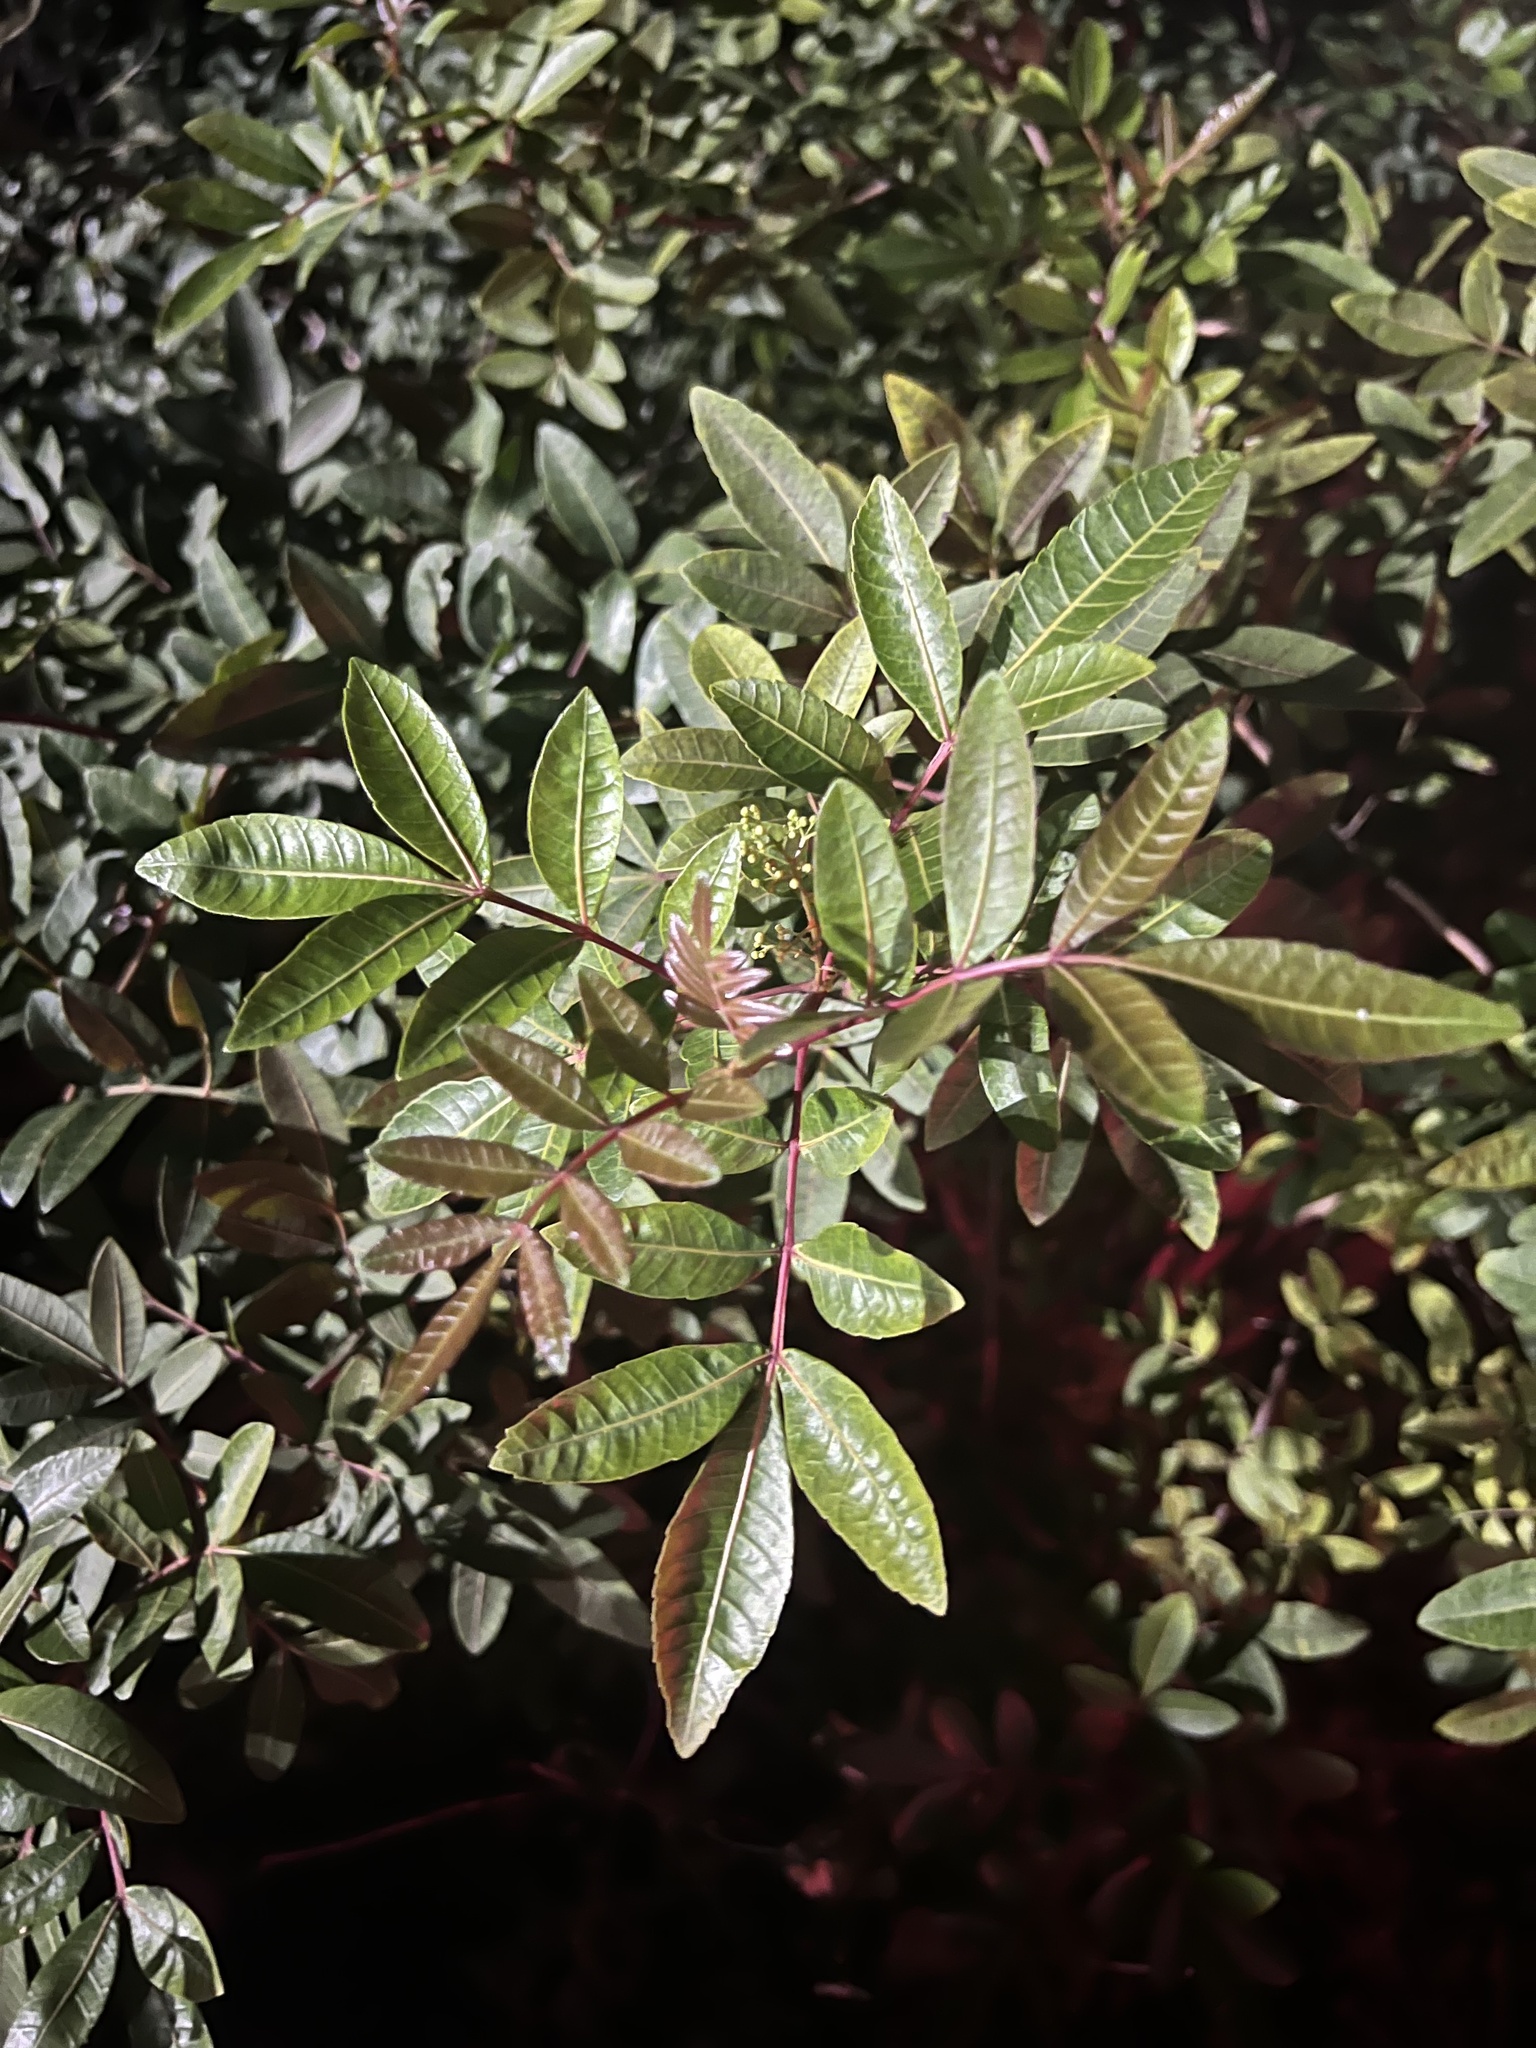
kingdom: Plantae
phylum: Tracheophyta
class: Magnoliopsida
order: Sapindales
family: Anacardiaceae
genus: Schinus
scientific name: Schinus terebinthifolia
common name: Brazilian peppertree
